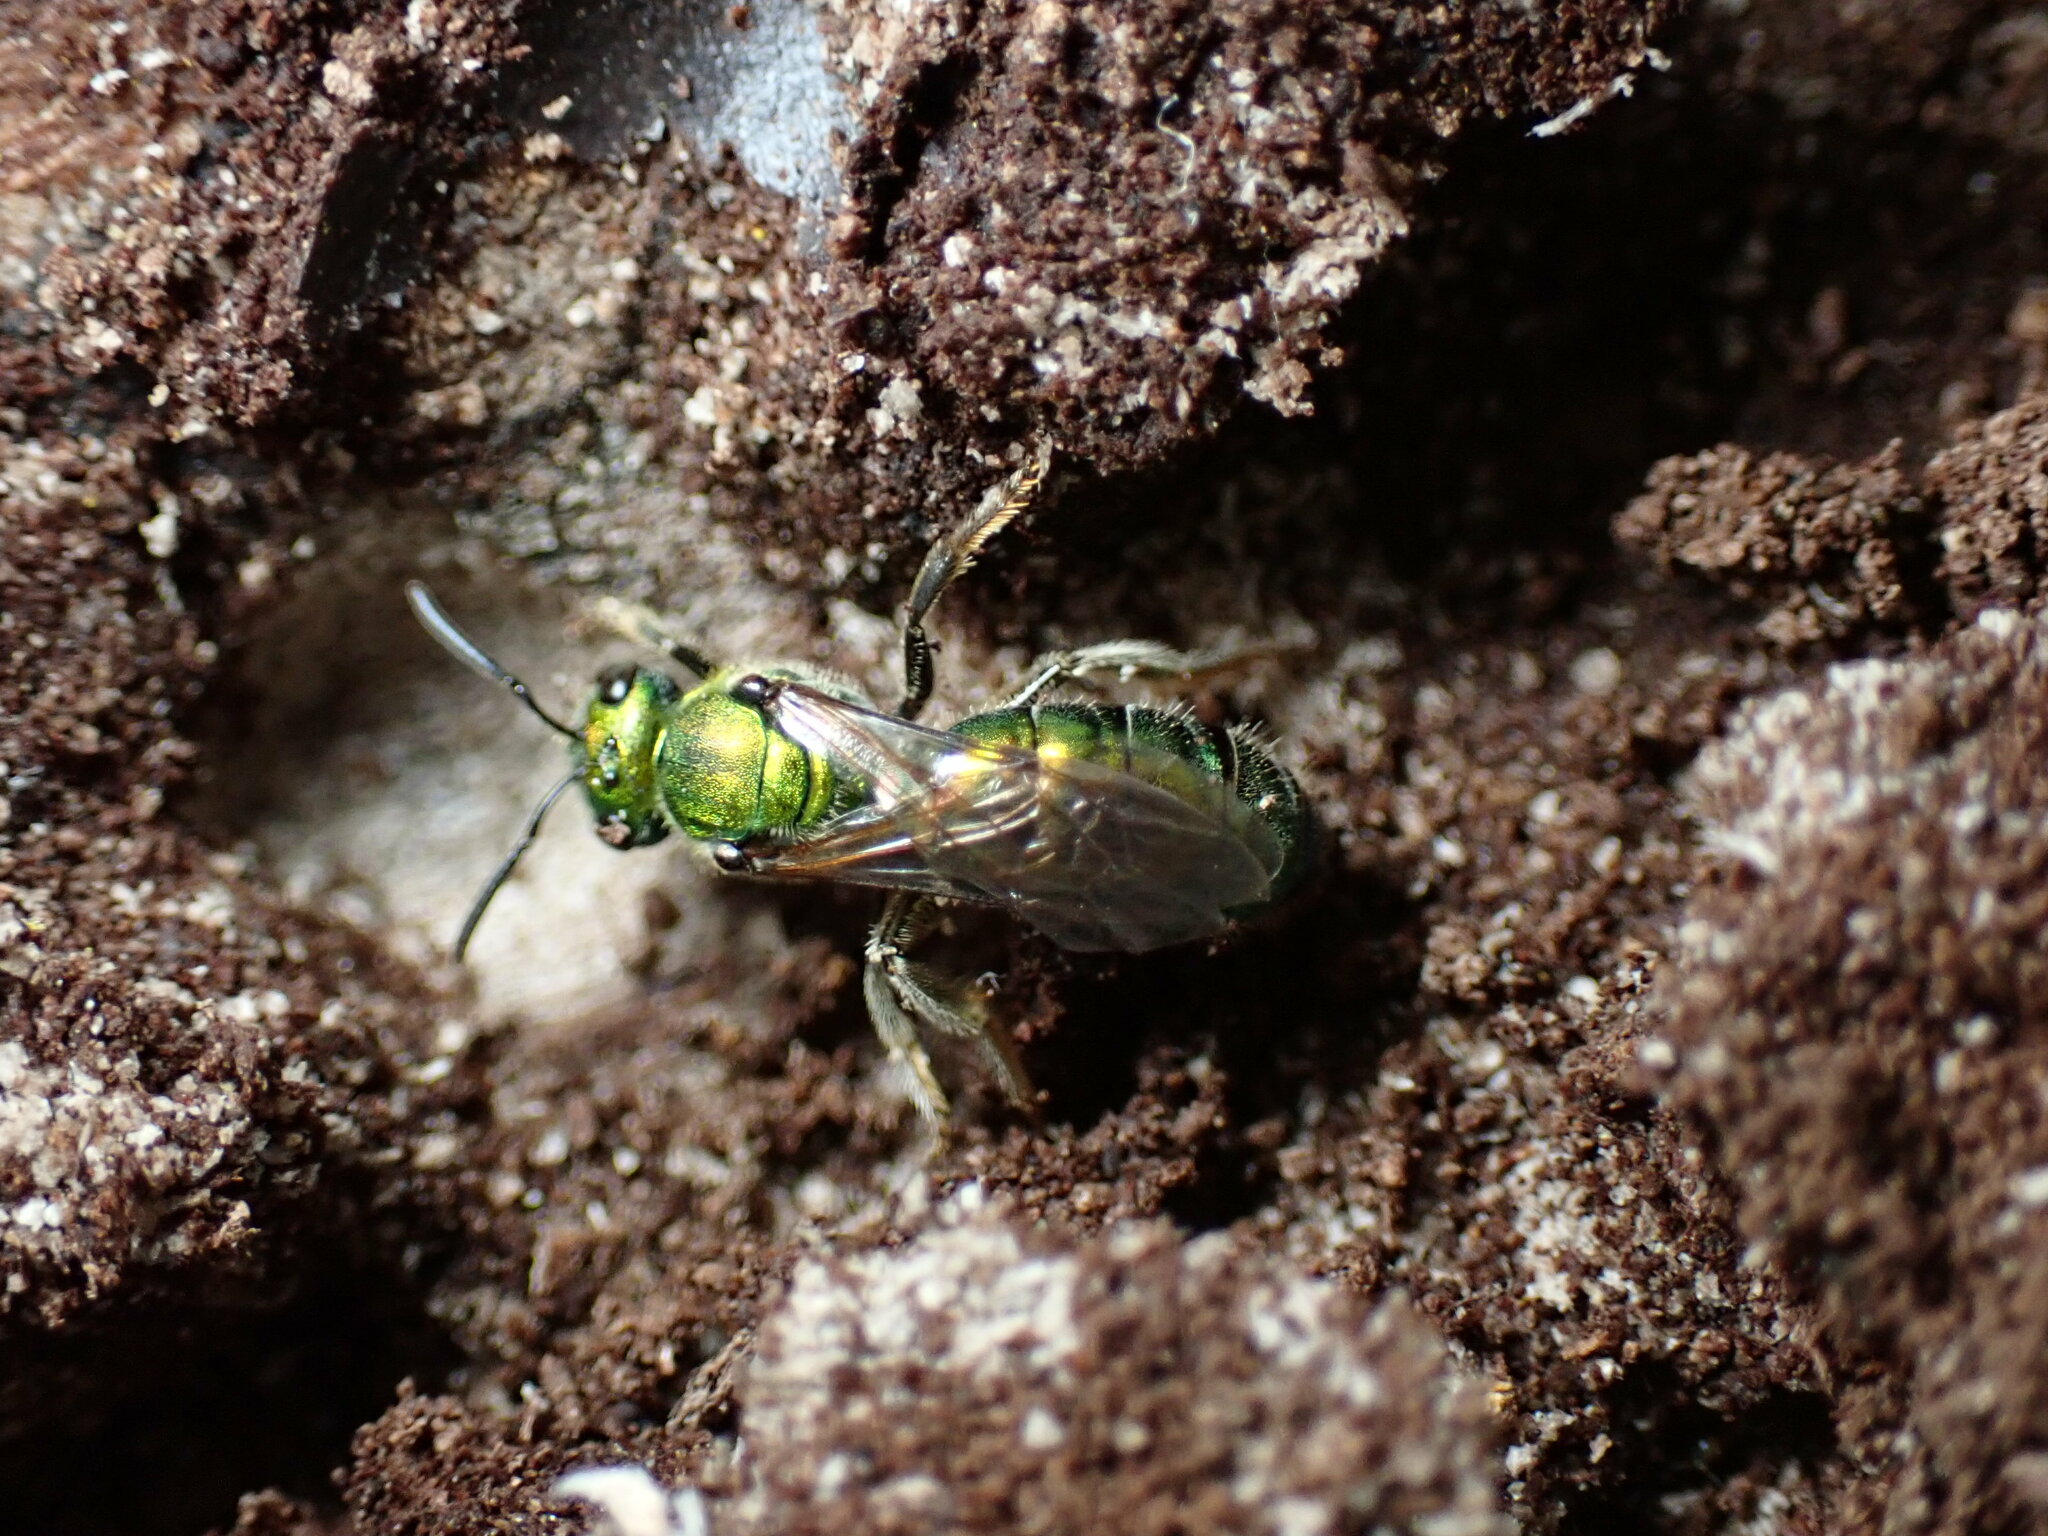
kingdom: Animalia
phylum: Arthropoda
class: Insecta
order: Hymenoptera
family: Halictidae
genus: Augochlora
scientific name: Augochlora pura
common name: Pure green sweat bee
